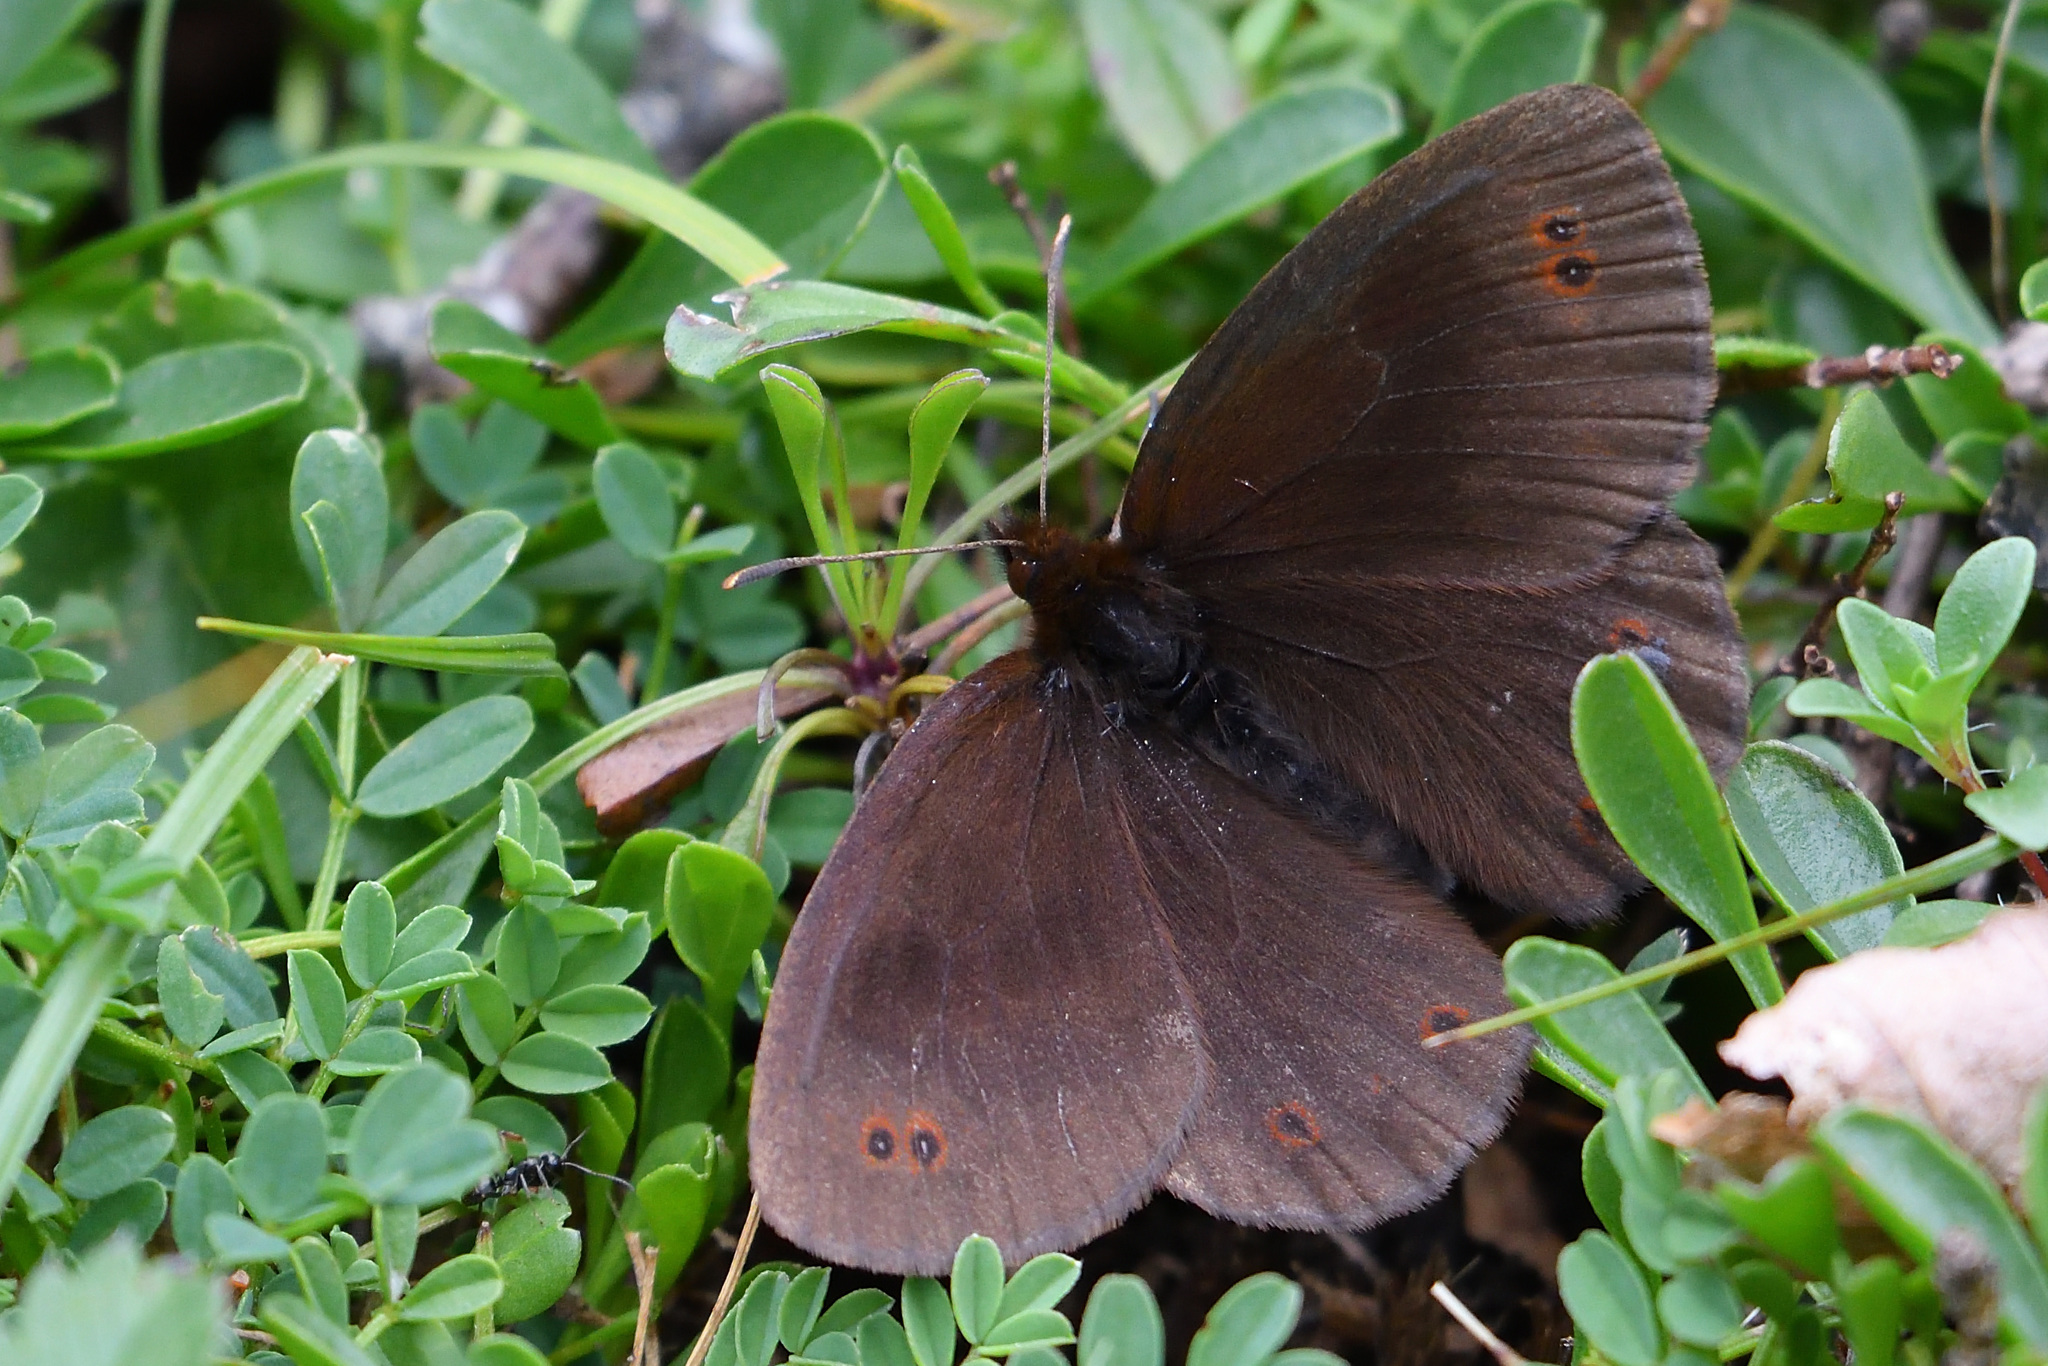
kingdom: Animalia
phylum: Arthropoda
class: Insecta
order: Lepidoptera
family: Nymphalidae
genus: Erebia
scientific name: Erebia pronoe
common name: Water ringlet
